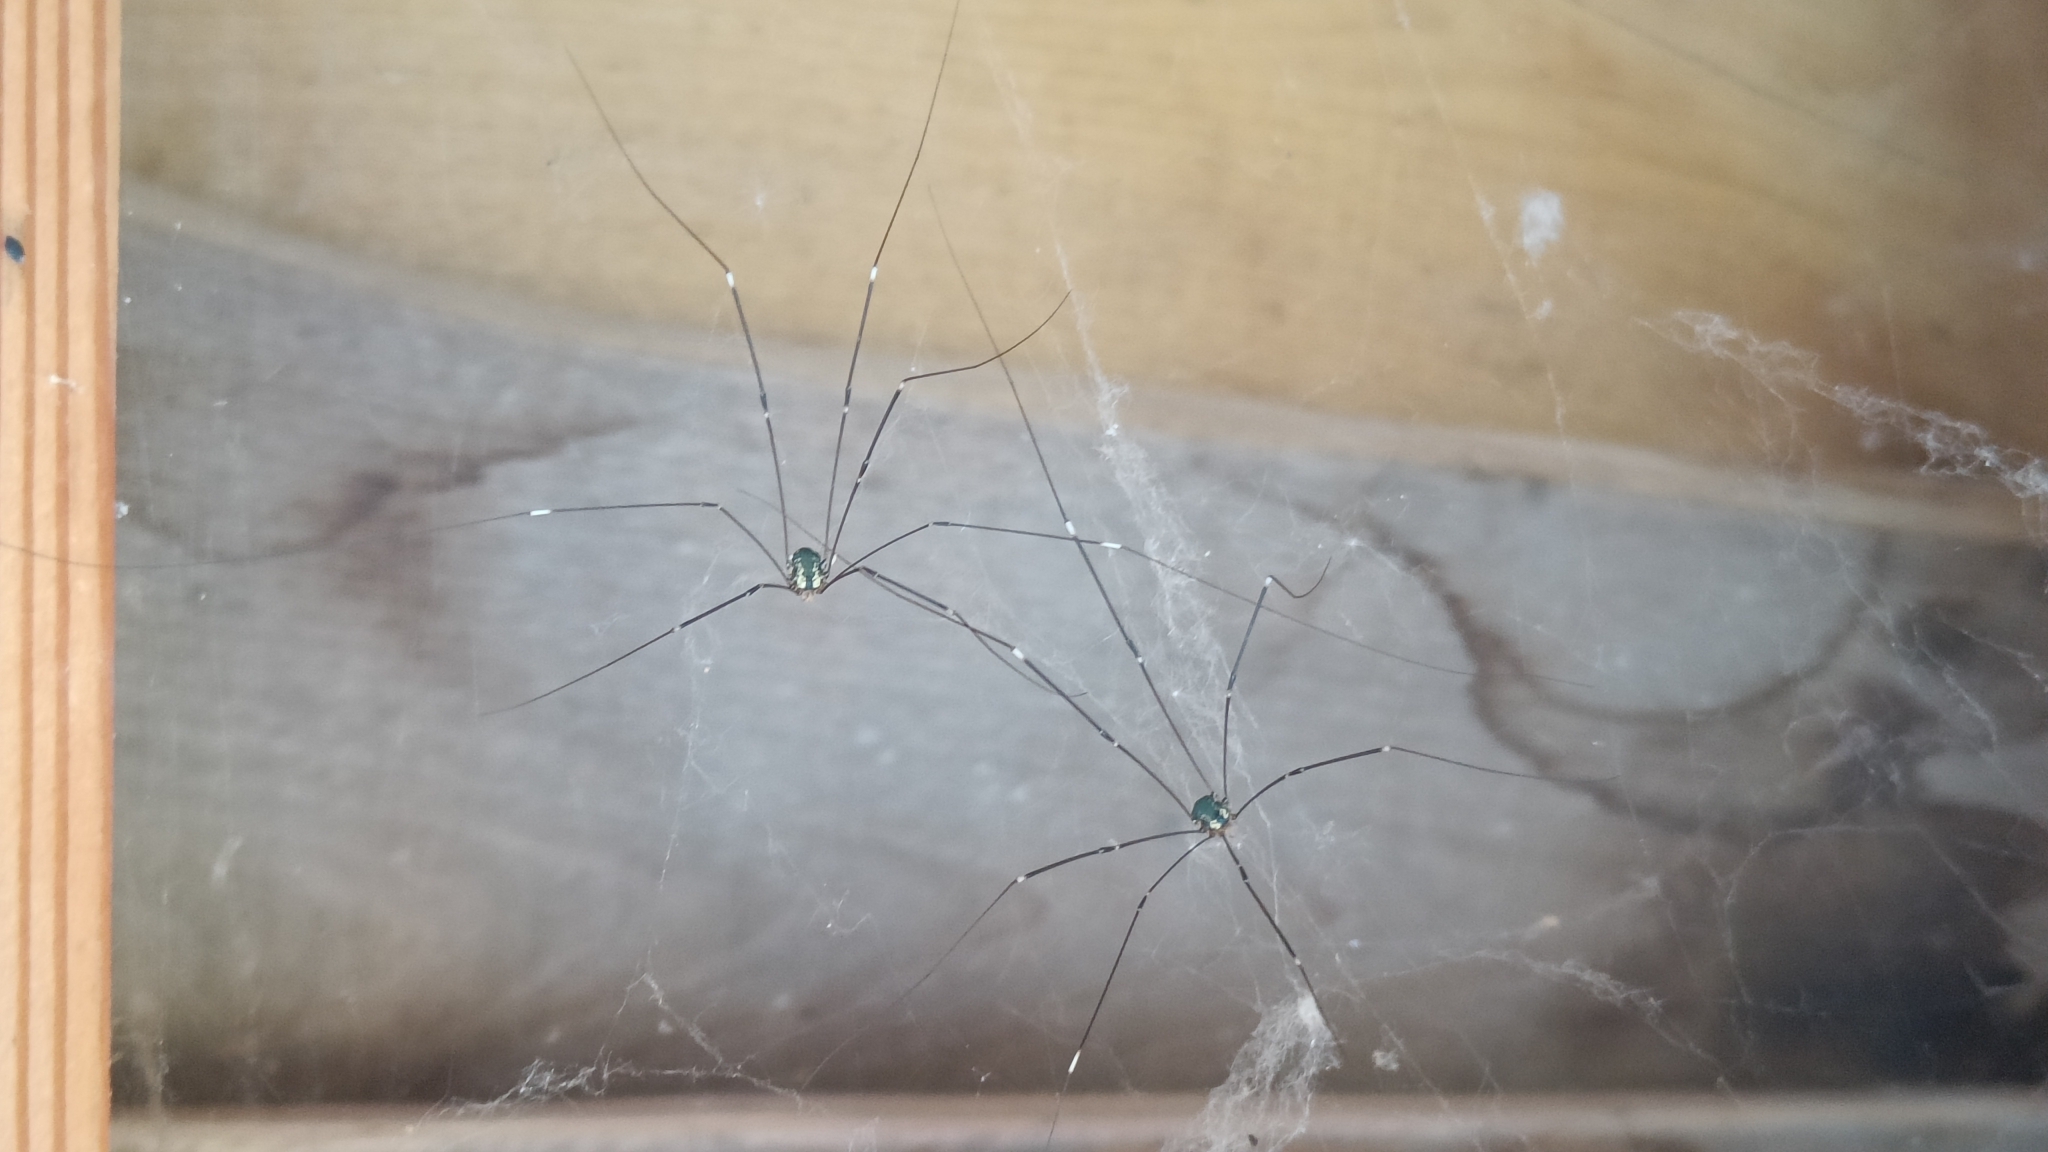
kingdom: Animalia
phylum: Arthropoda
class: Arachnida
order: Opiliones
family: Sclerosomatidae
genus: Leiobunum
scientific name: Leiobunum
